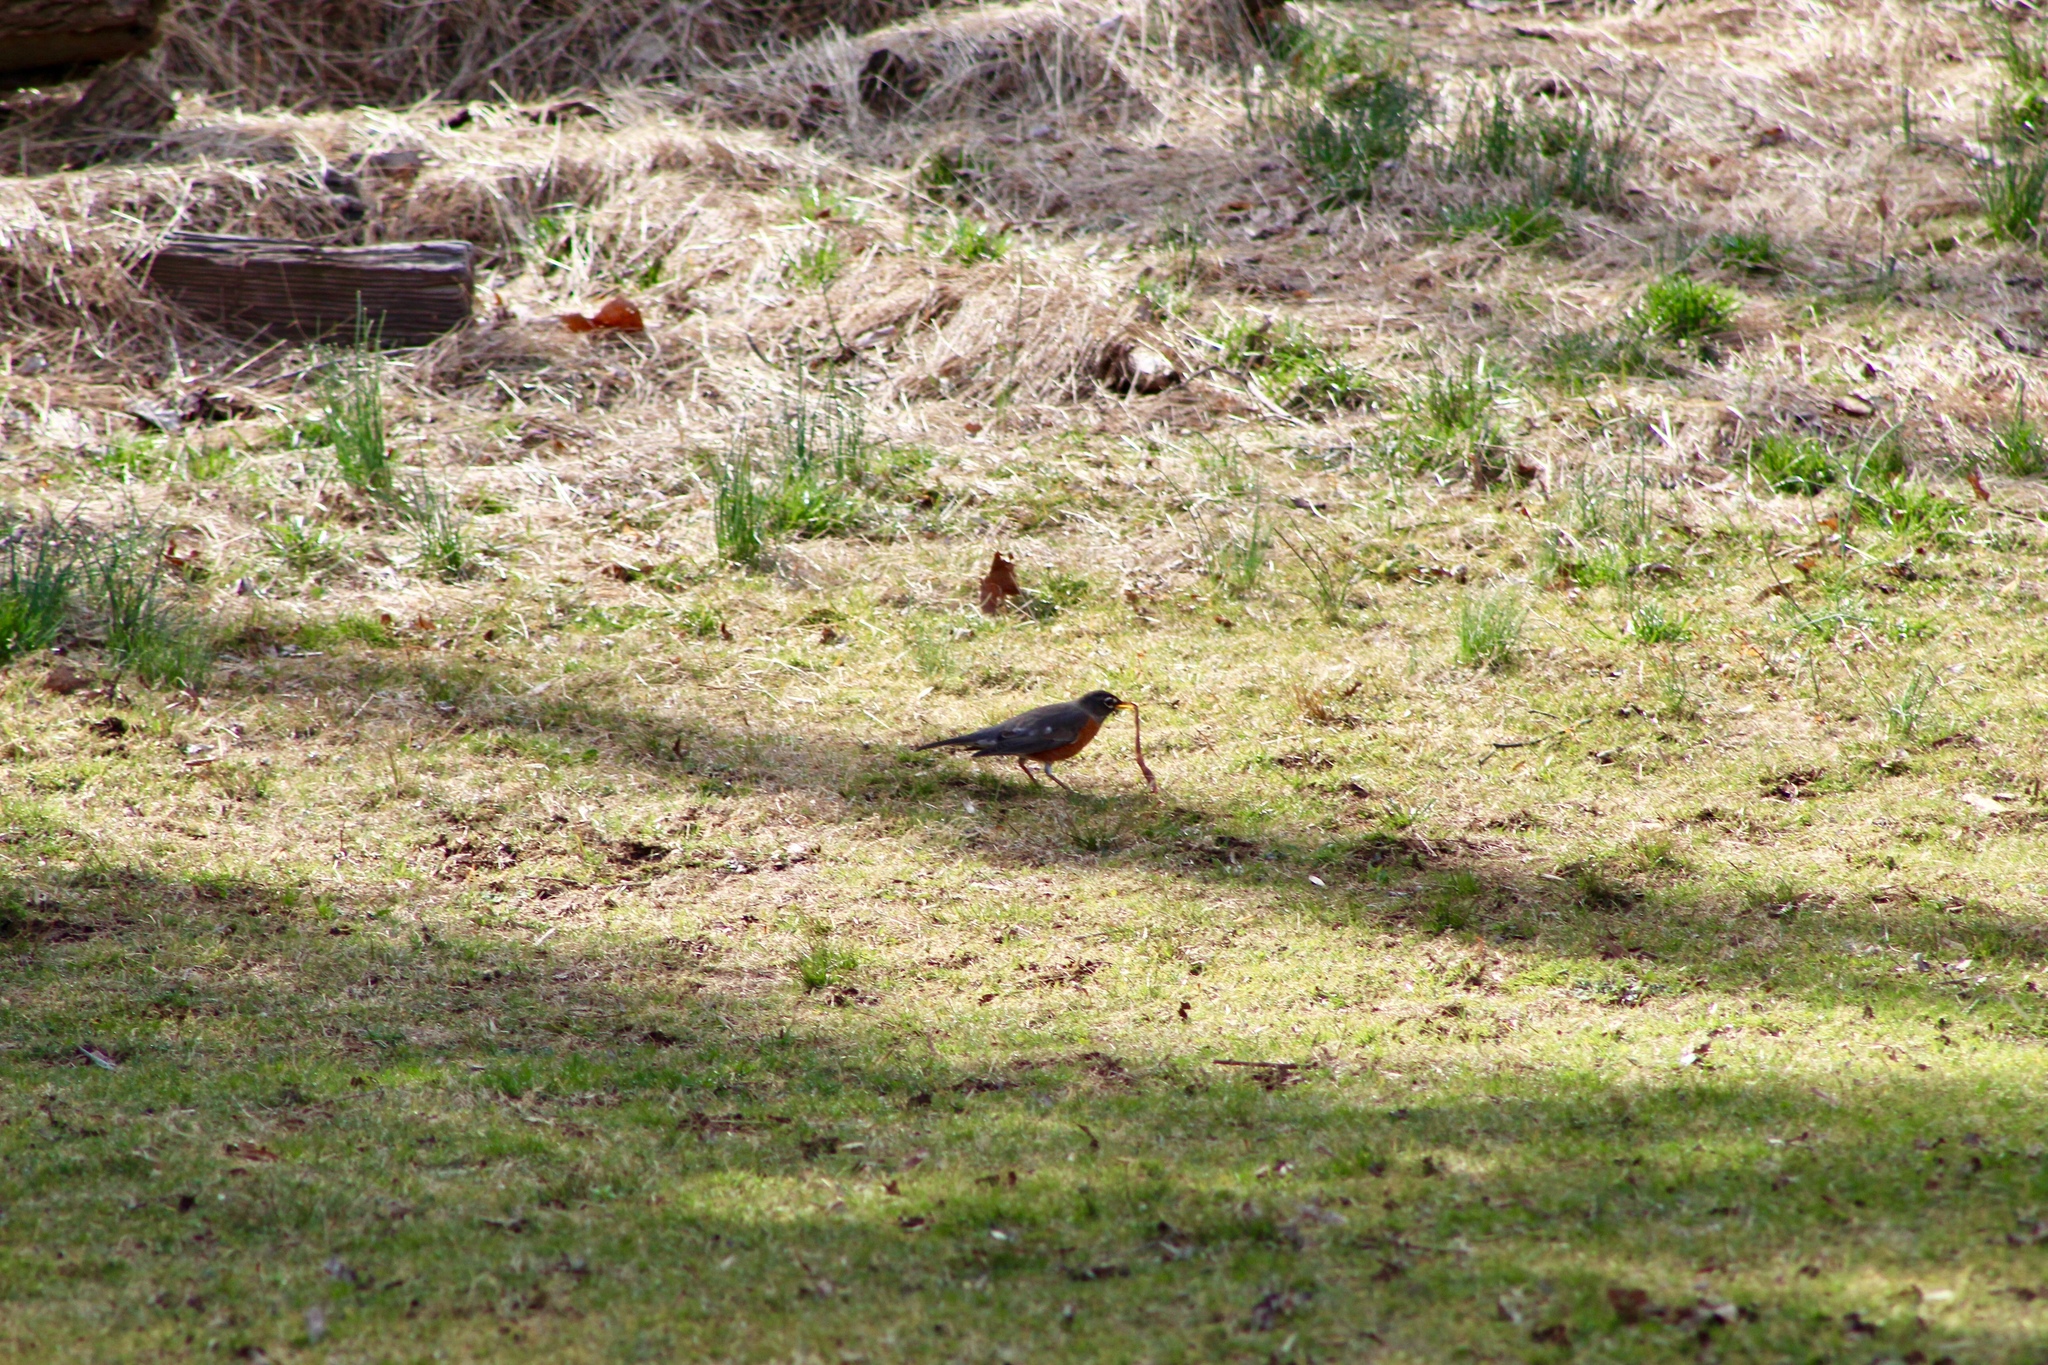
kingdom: Animalia
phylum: Chordata
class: Aves
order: Passeriformes
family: Turdidae
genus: Turdus
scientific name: Turdus migratorius
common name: American robin
